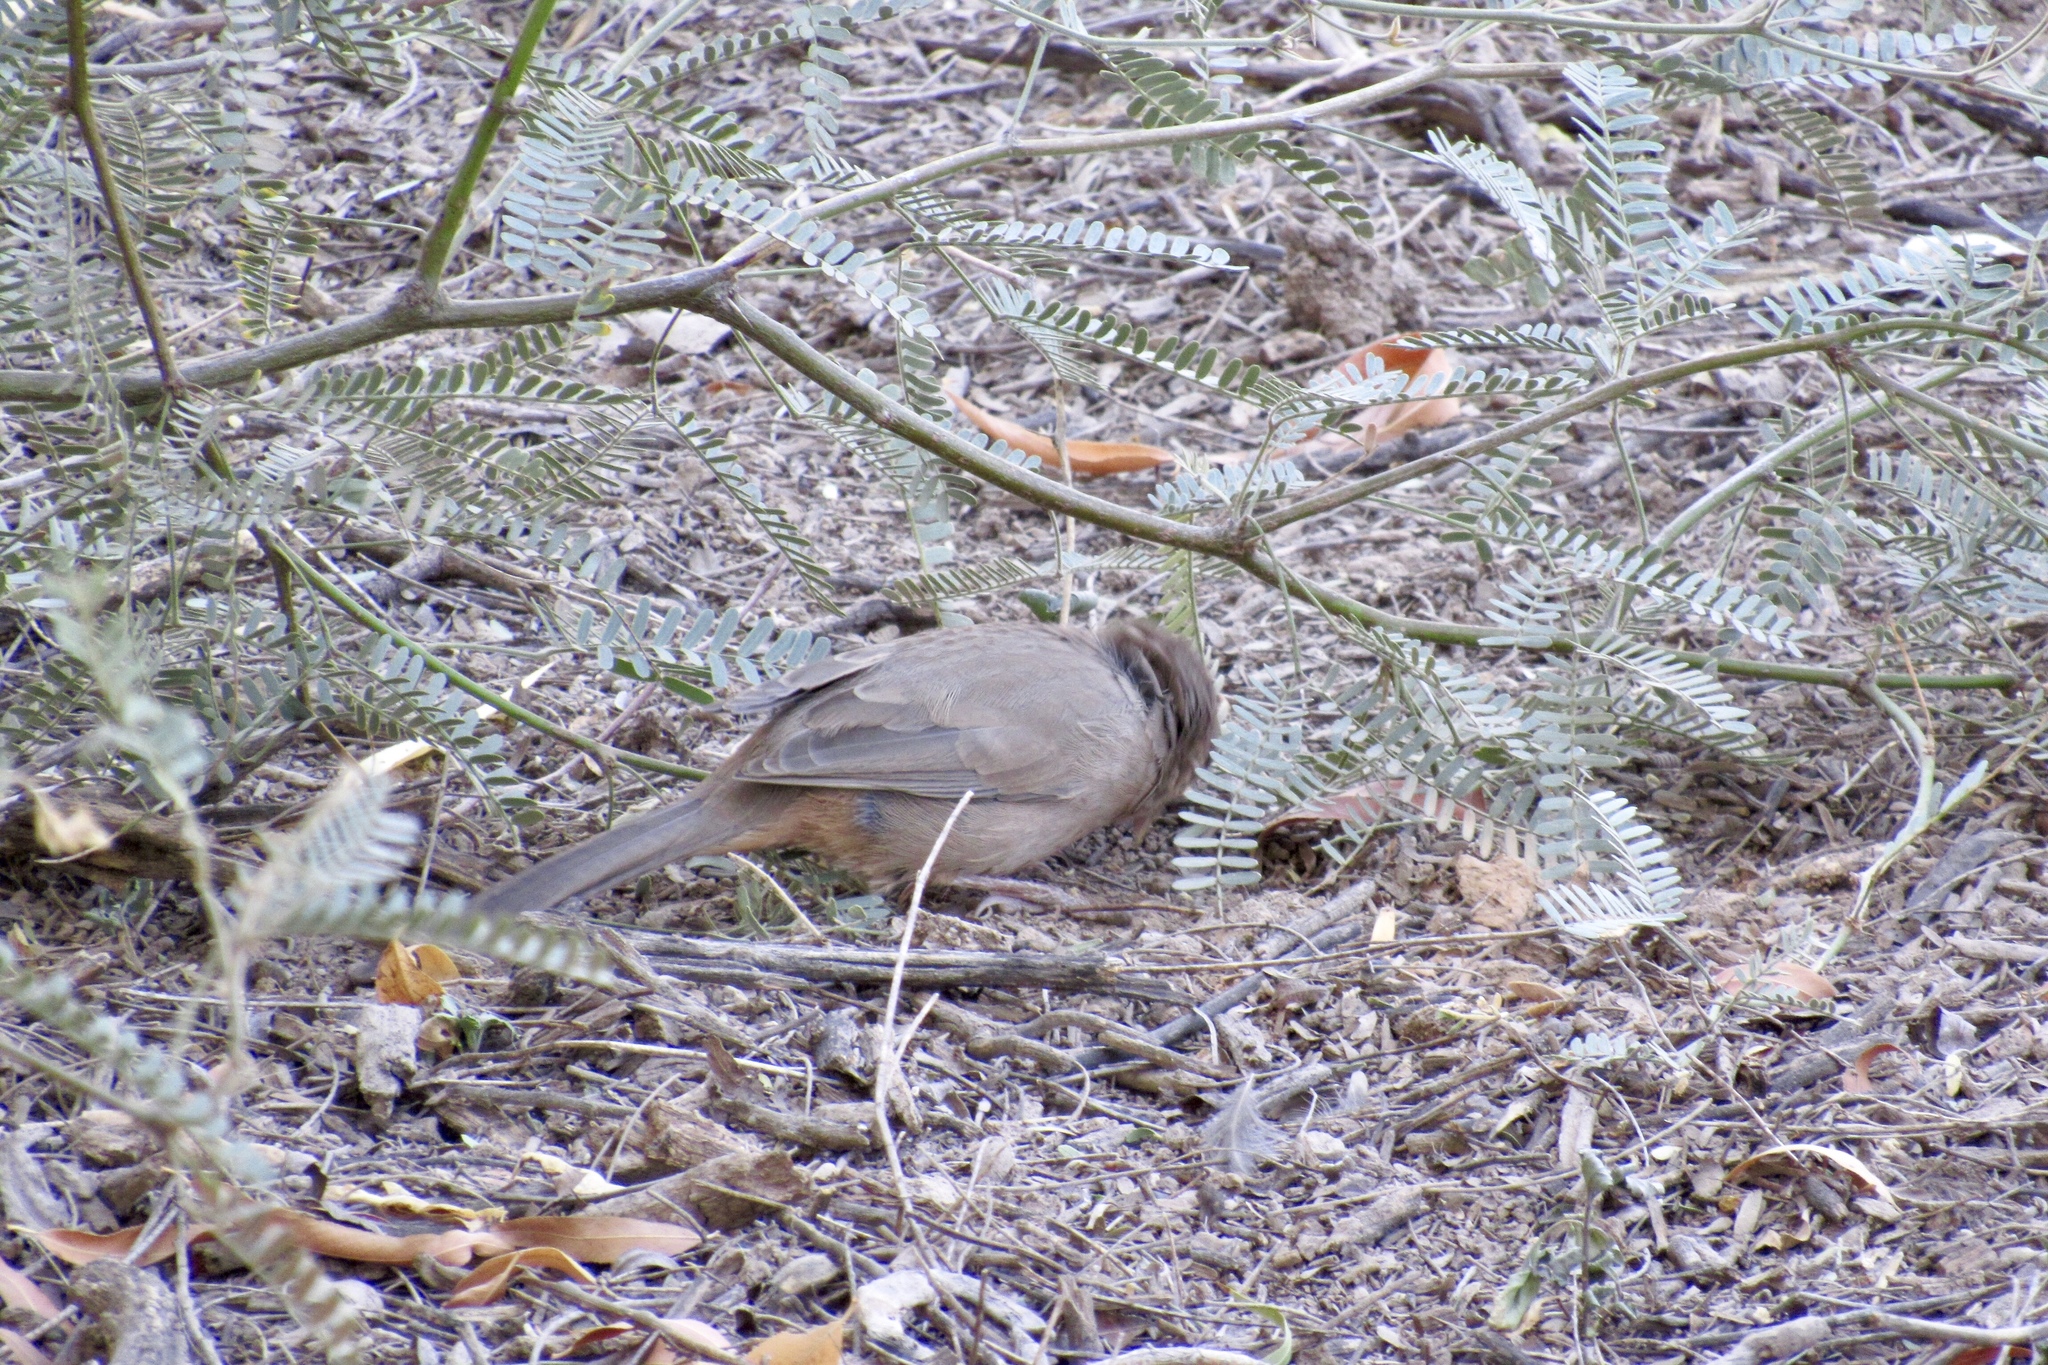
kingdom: Animalia
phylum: Chordata
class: Aves
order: Passeriformes
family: Passerellidae
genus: Melozone
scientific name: Melozone aberti
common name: Abert's towhee
